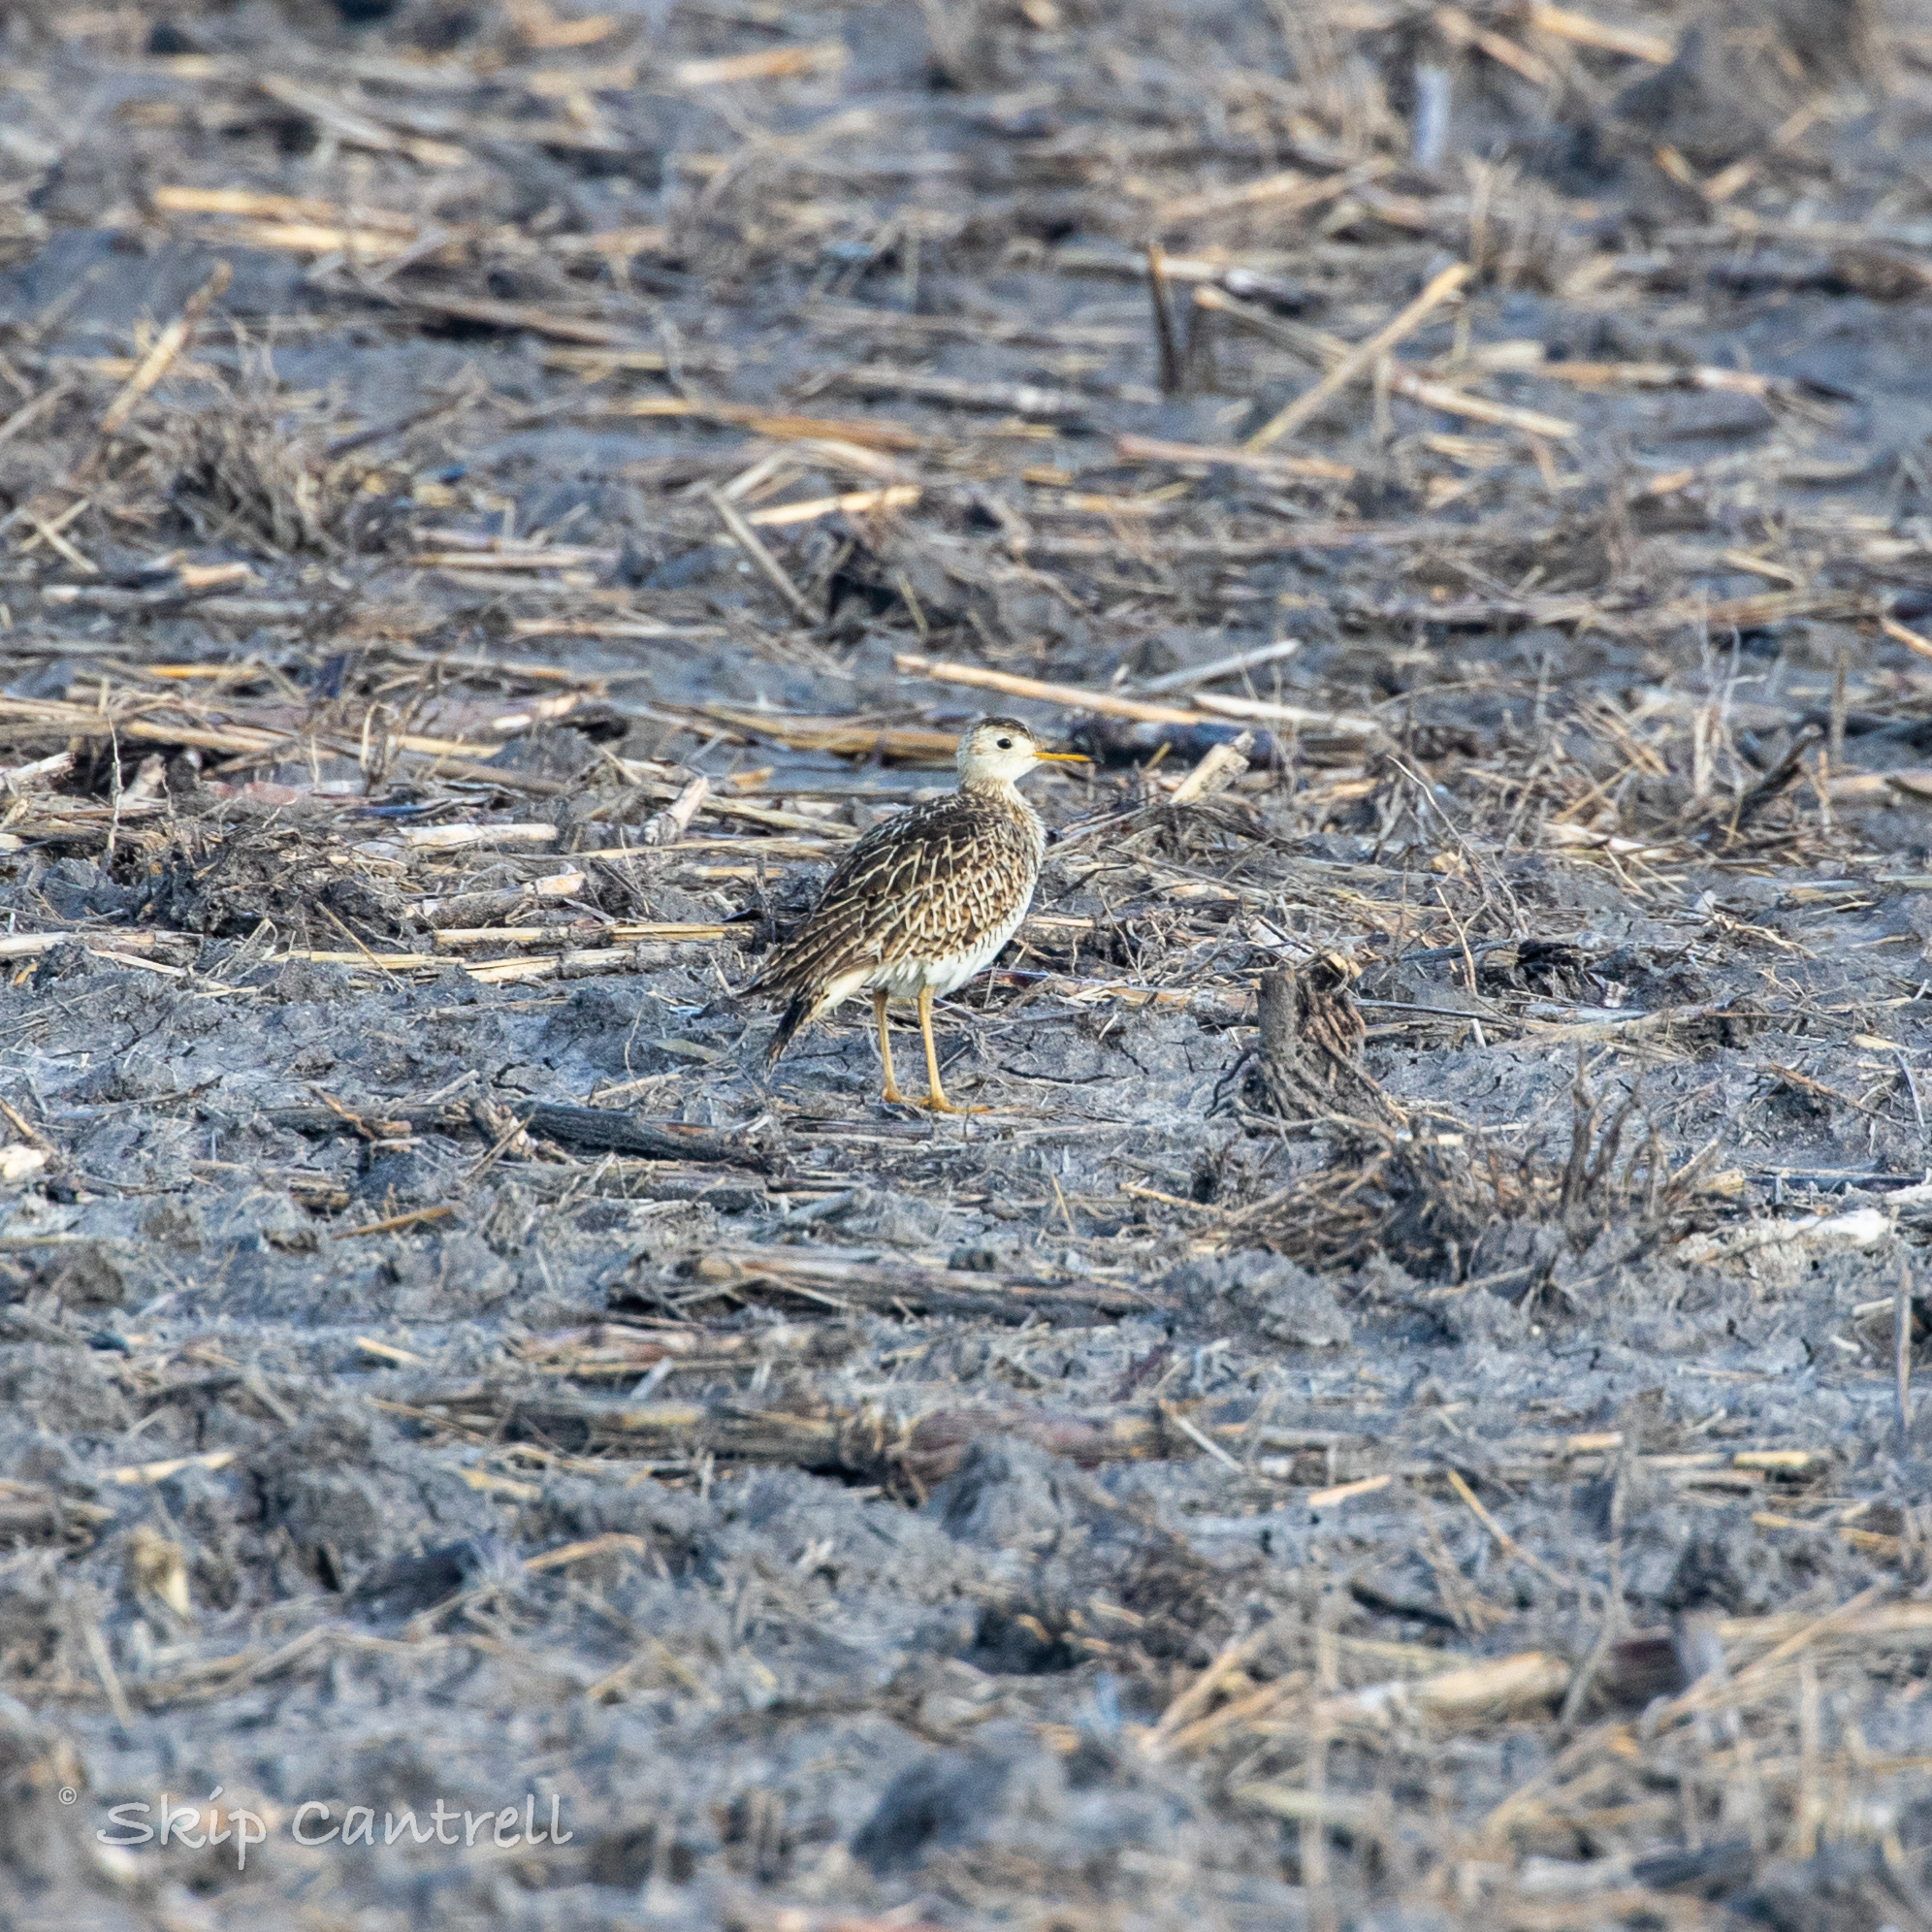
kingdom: Animalia
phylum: Chordata
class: Aves
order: Charadriiformes
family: Scolopacidae
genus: Bartramia
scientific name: Bartramia longicauda
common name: Upland sandpiper
